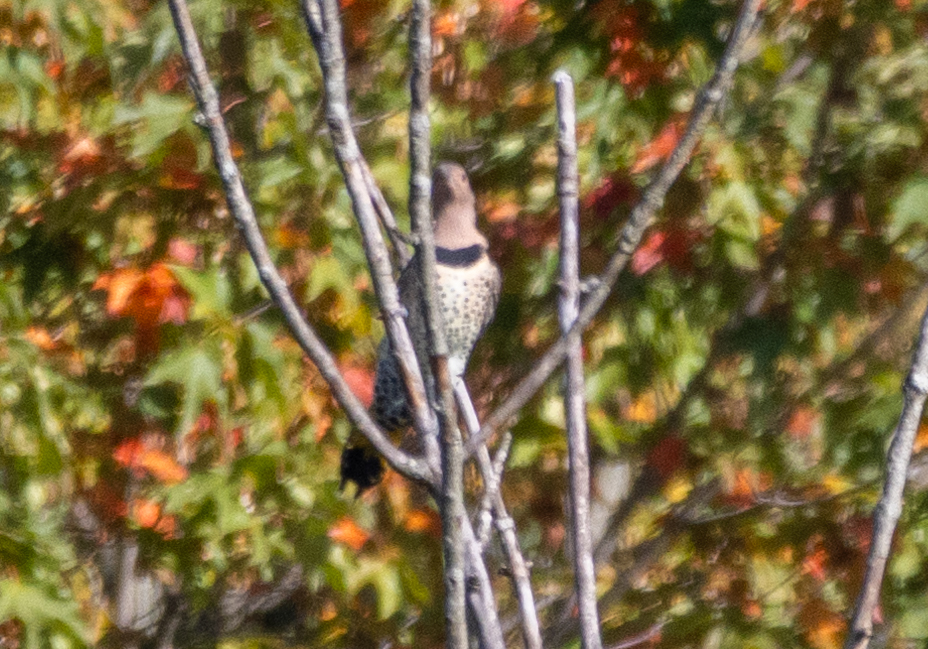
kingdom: Animalia
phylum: Chordata
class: Aves
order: Piciformes
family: Picidae
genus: Colaptes
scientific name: Colaptes auratus
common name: Northern flicker
